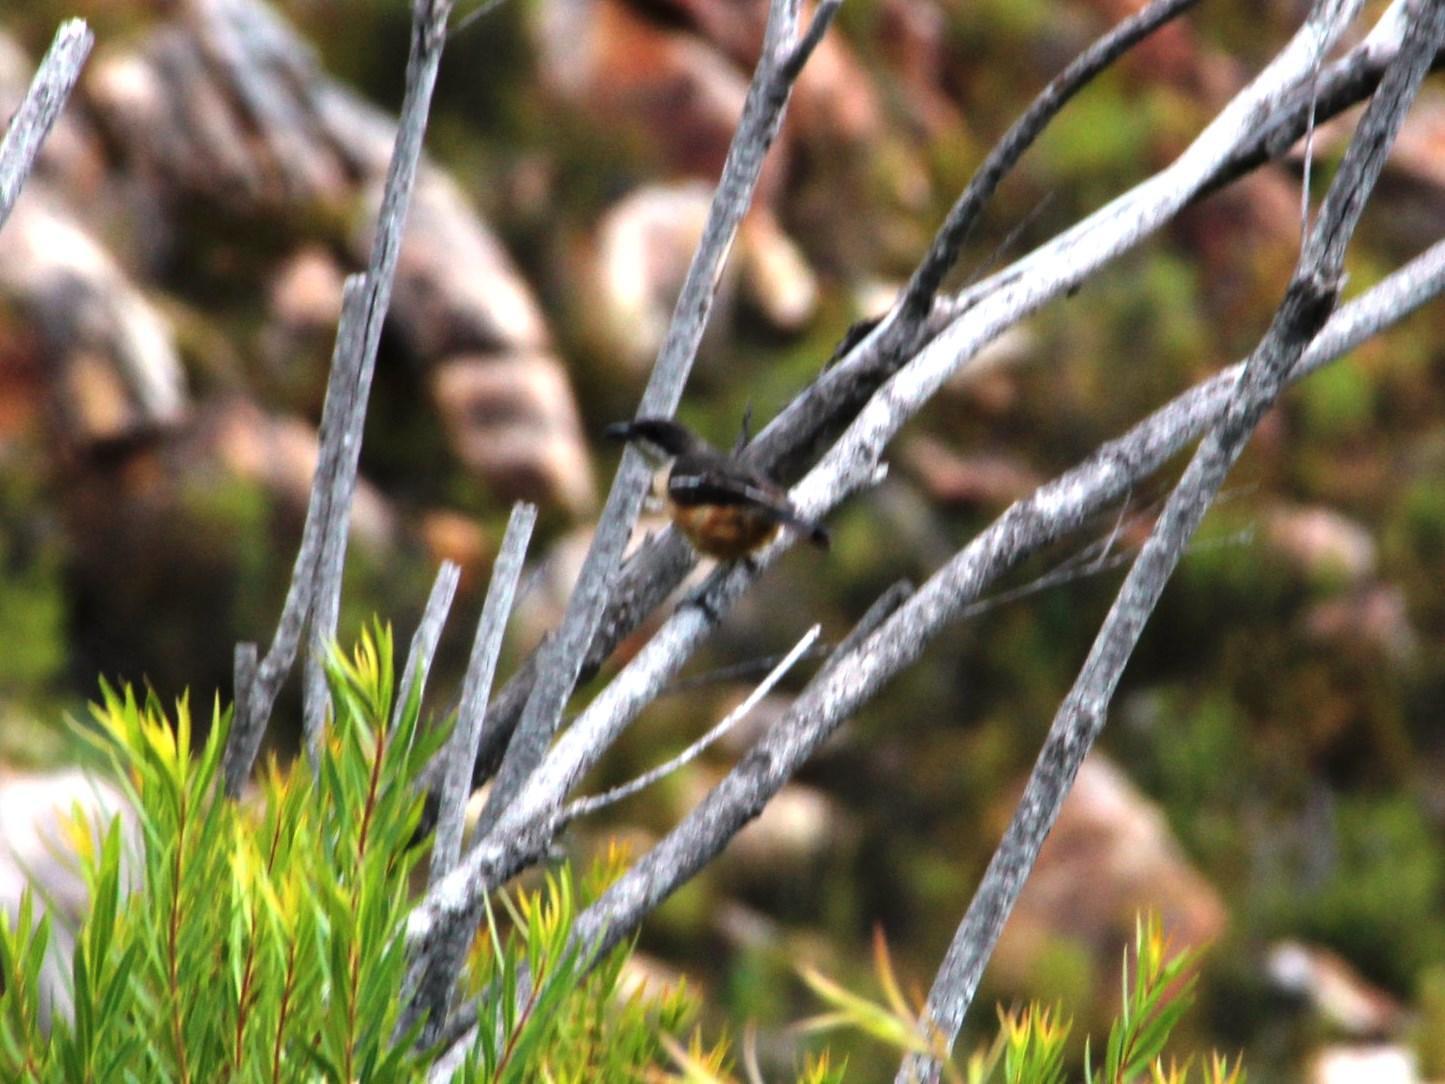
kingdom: Animalia
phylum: Chordata
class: Aves
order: Passeriformes
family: Malaconotidae
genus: Laniarius
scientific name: Laniarius ferrugineus
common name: Southern boubou
